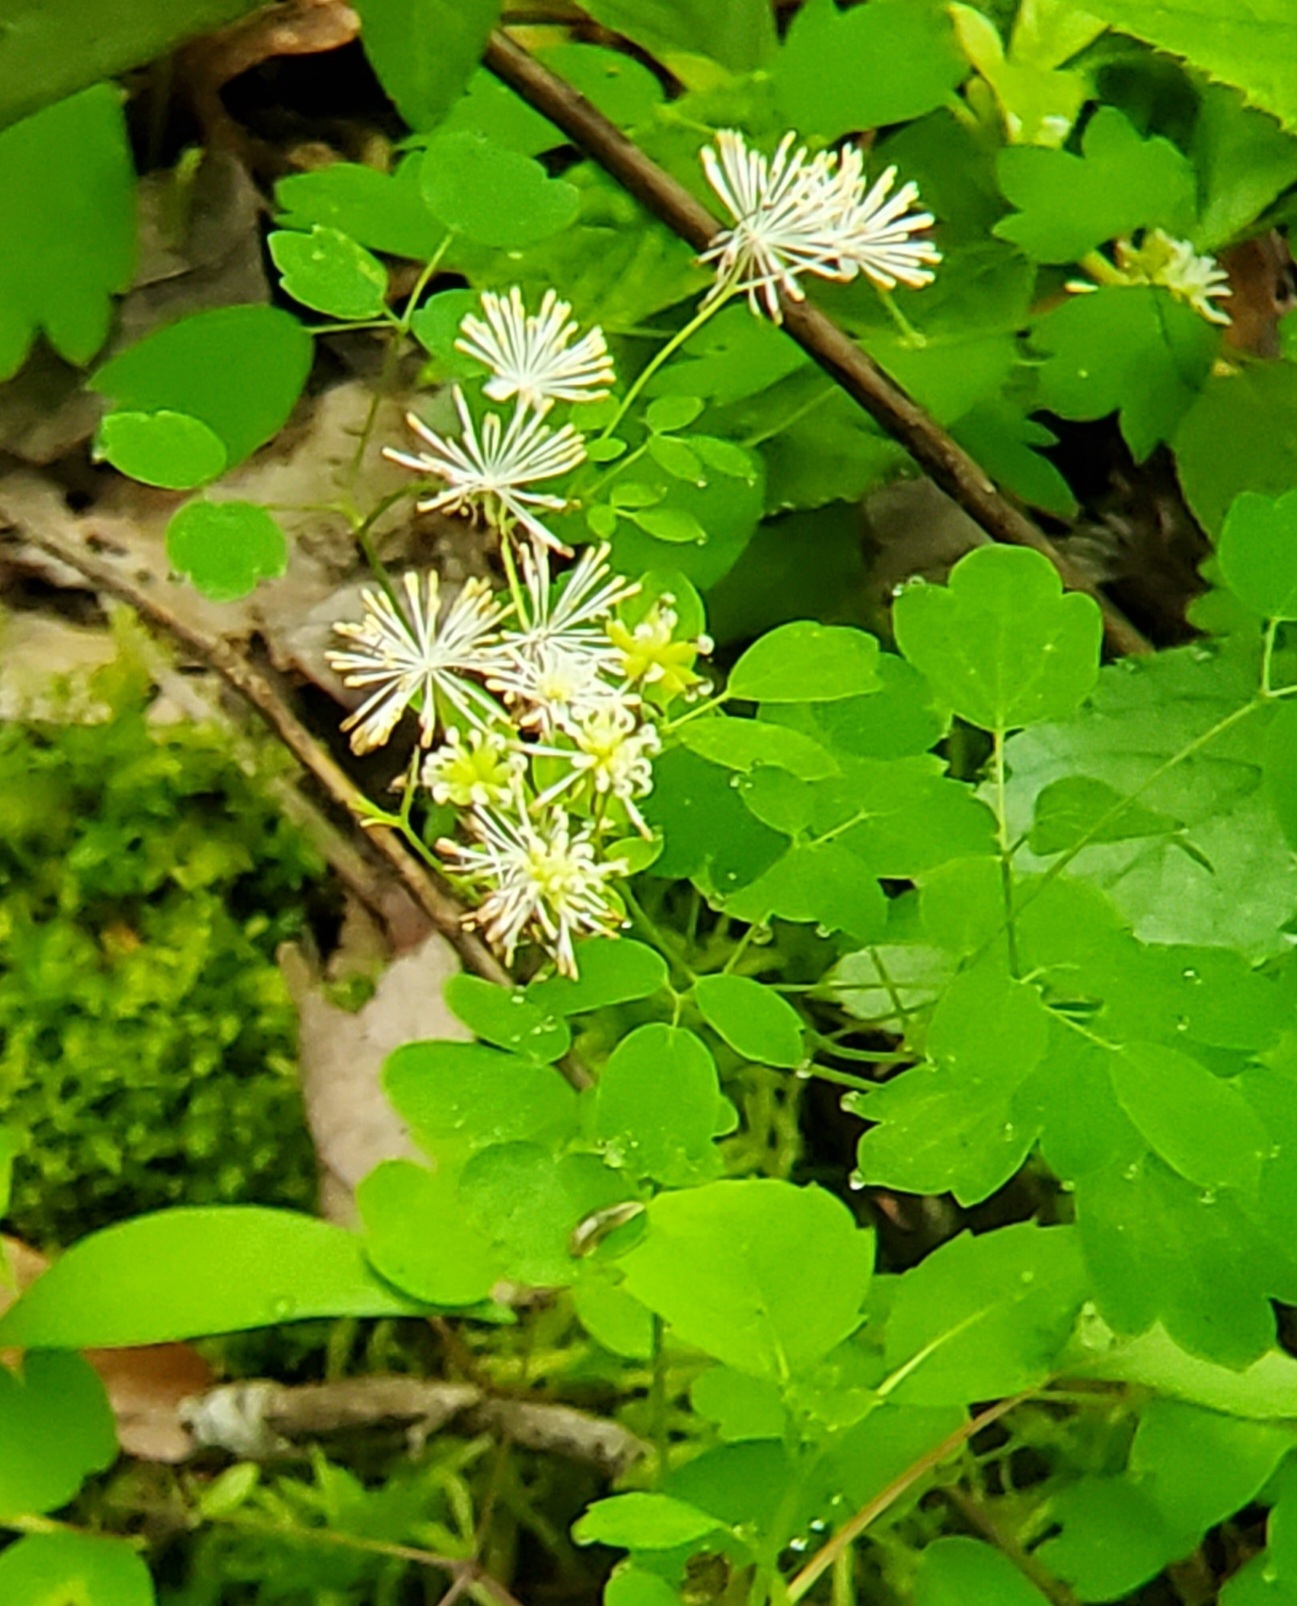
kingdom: Plantae
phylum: Tracheophyta
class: Magnoliopsida
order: Ranunculales
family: Ranunculaceae
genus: Thalictrum
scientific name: Thalictrum pubescens
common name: King-of-the-meadow
